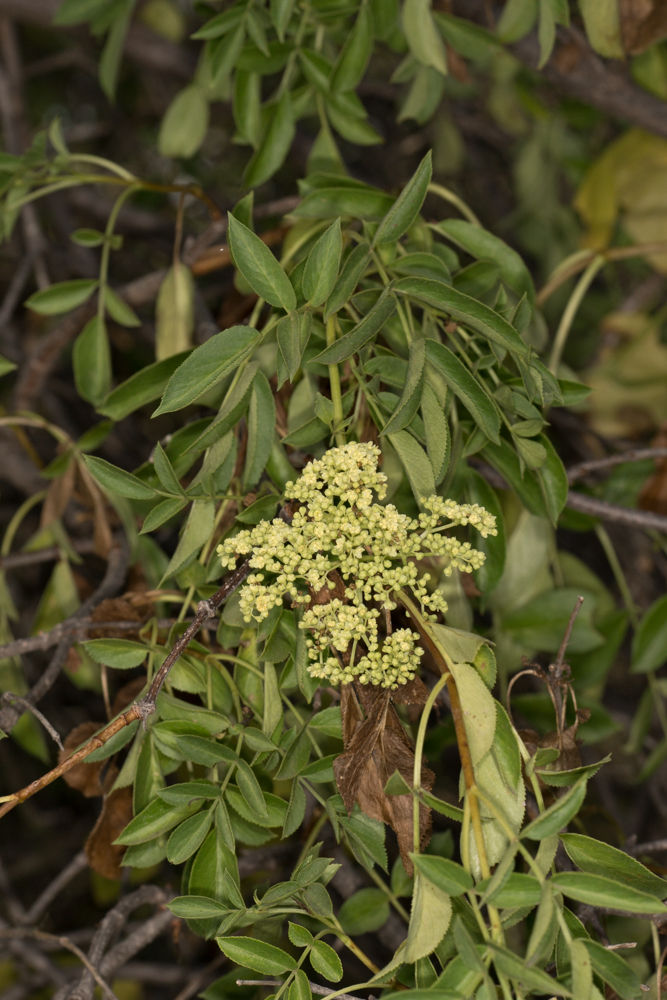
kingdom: Plantae
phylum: Tracheophyta
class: Magnoliopsida
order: Dipsacales
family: Viburnaceae
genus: Sambucus
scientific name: Sambucus cerulea
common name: Blue elder
